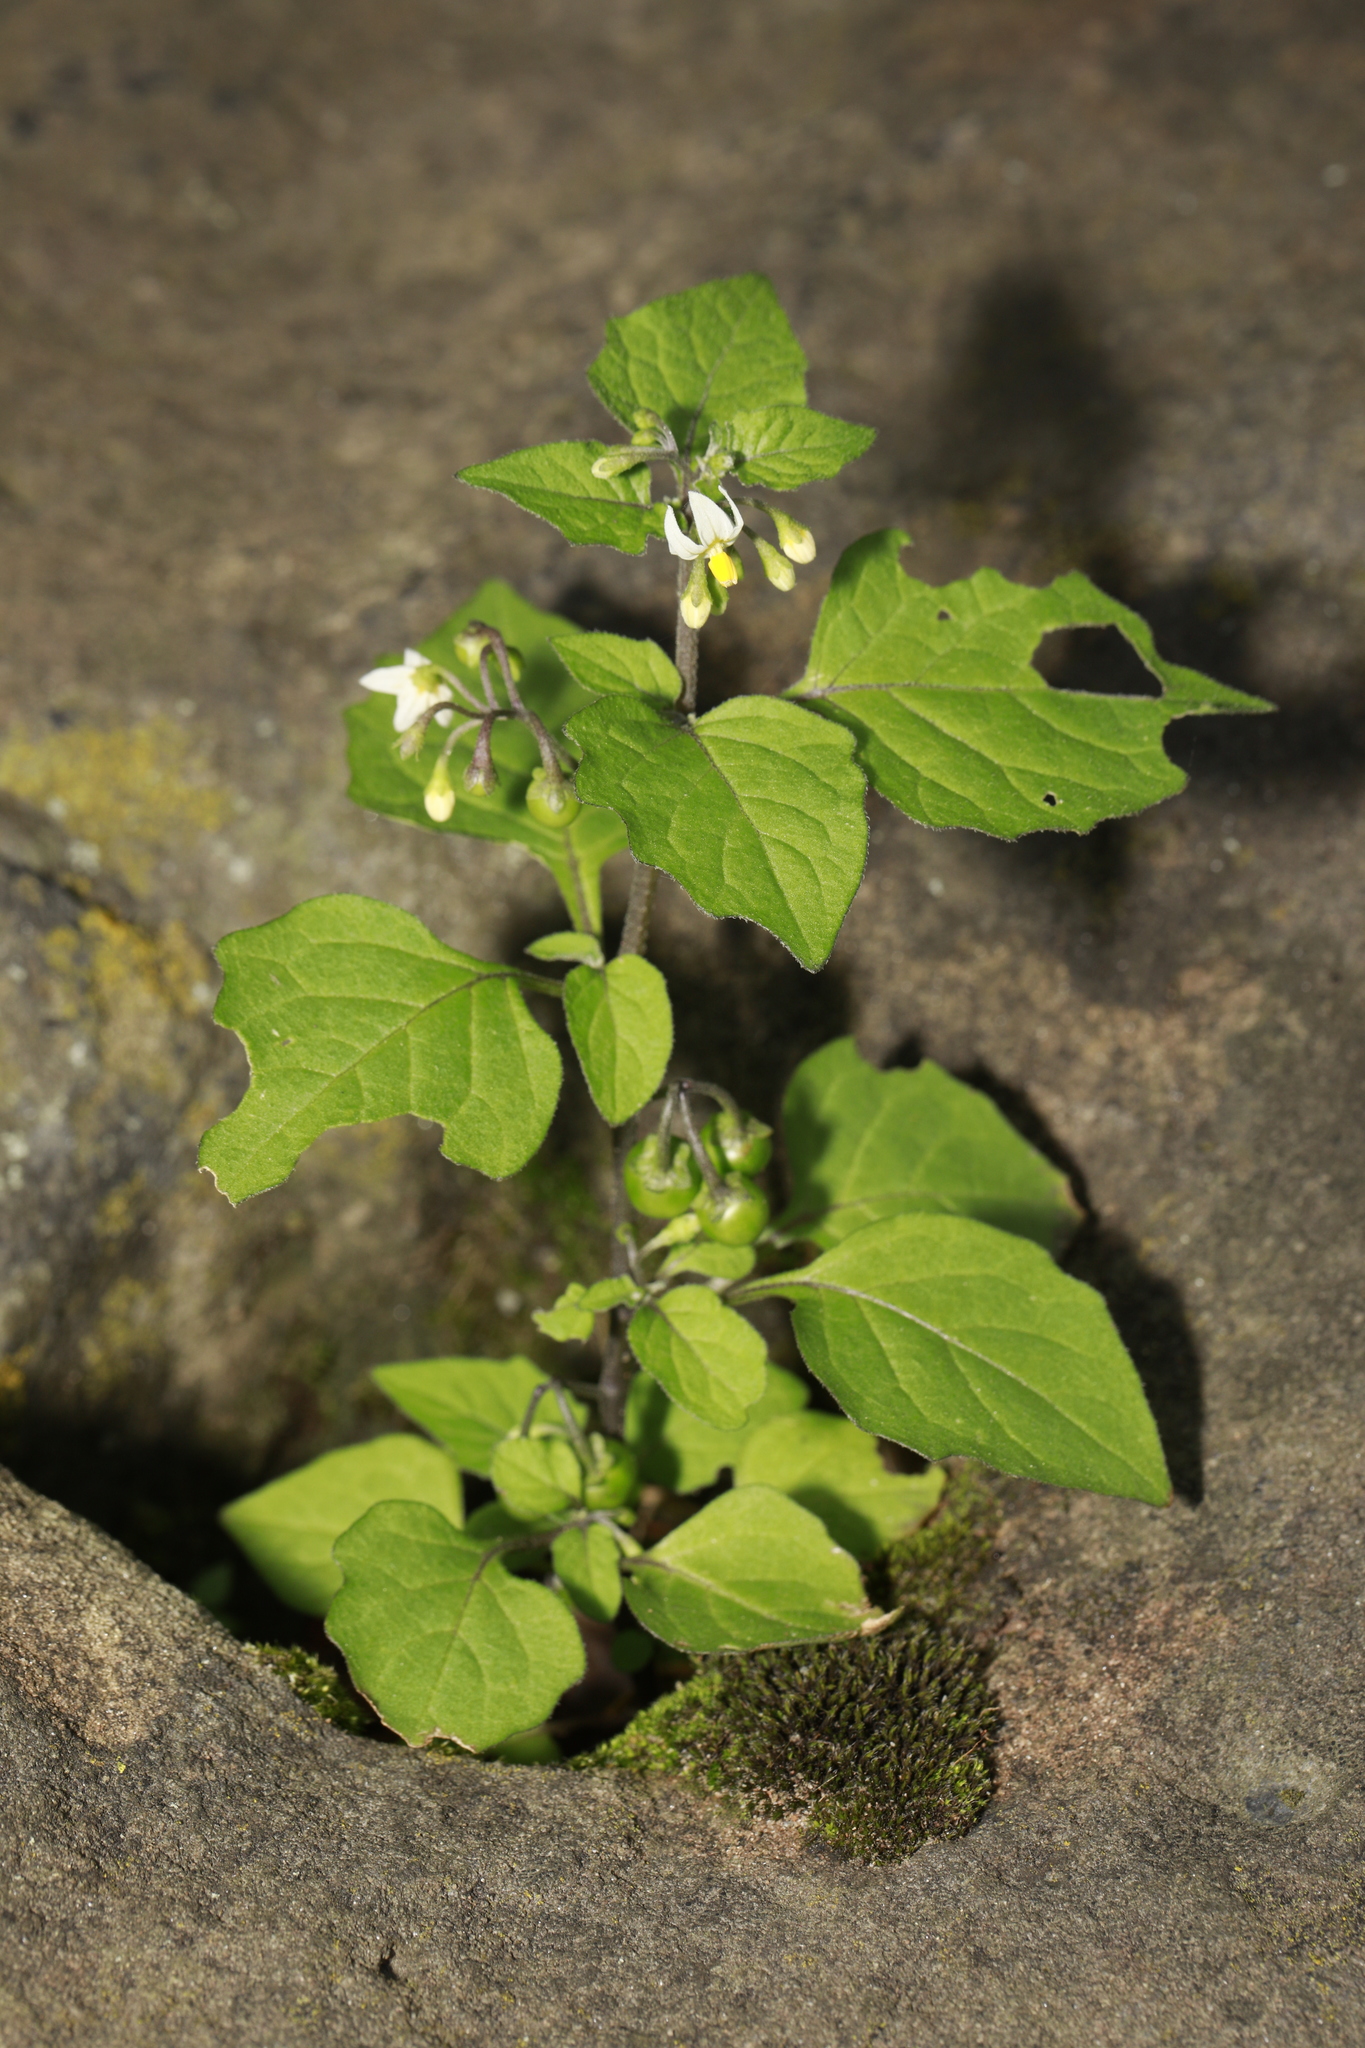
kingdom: Plantae
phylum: Tracheophyta
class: Magnoliopsida
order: Solanales
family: Solanaceae
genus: Solanum
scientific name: Solanum nigrum
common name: Black nightshade
